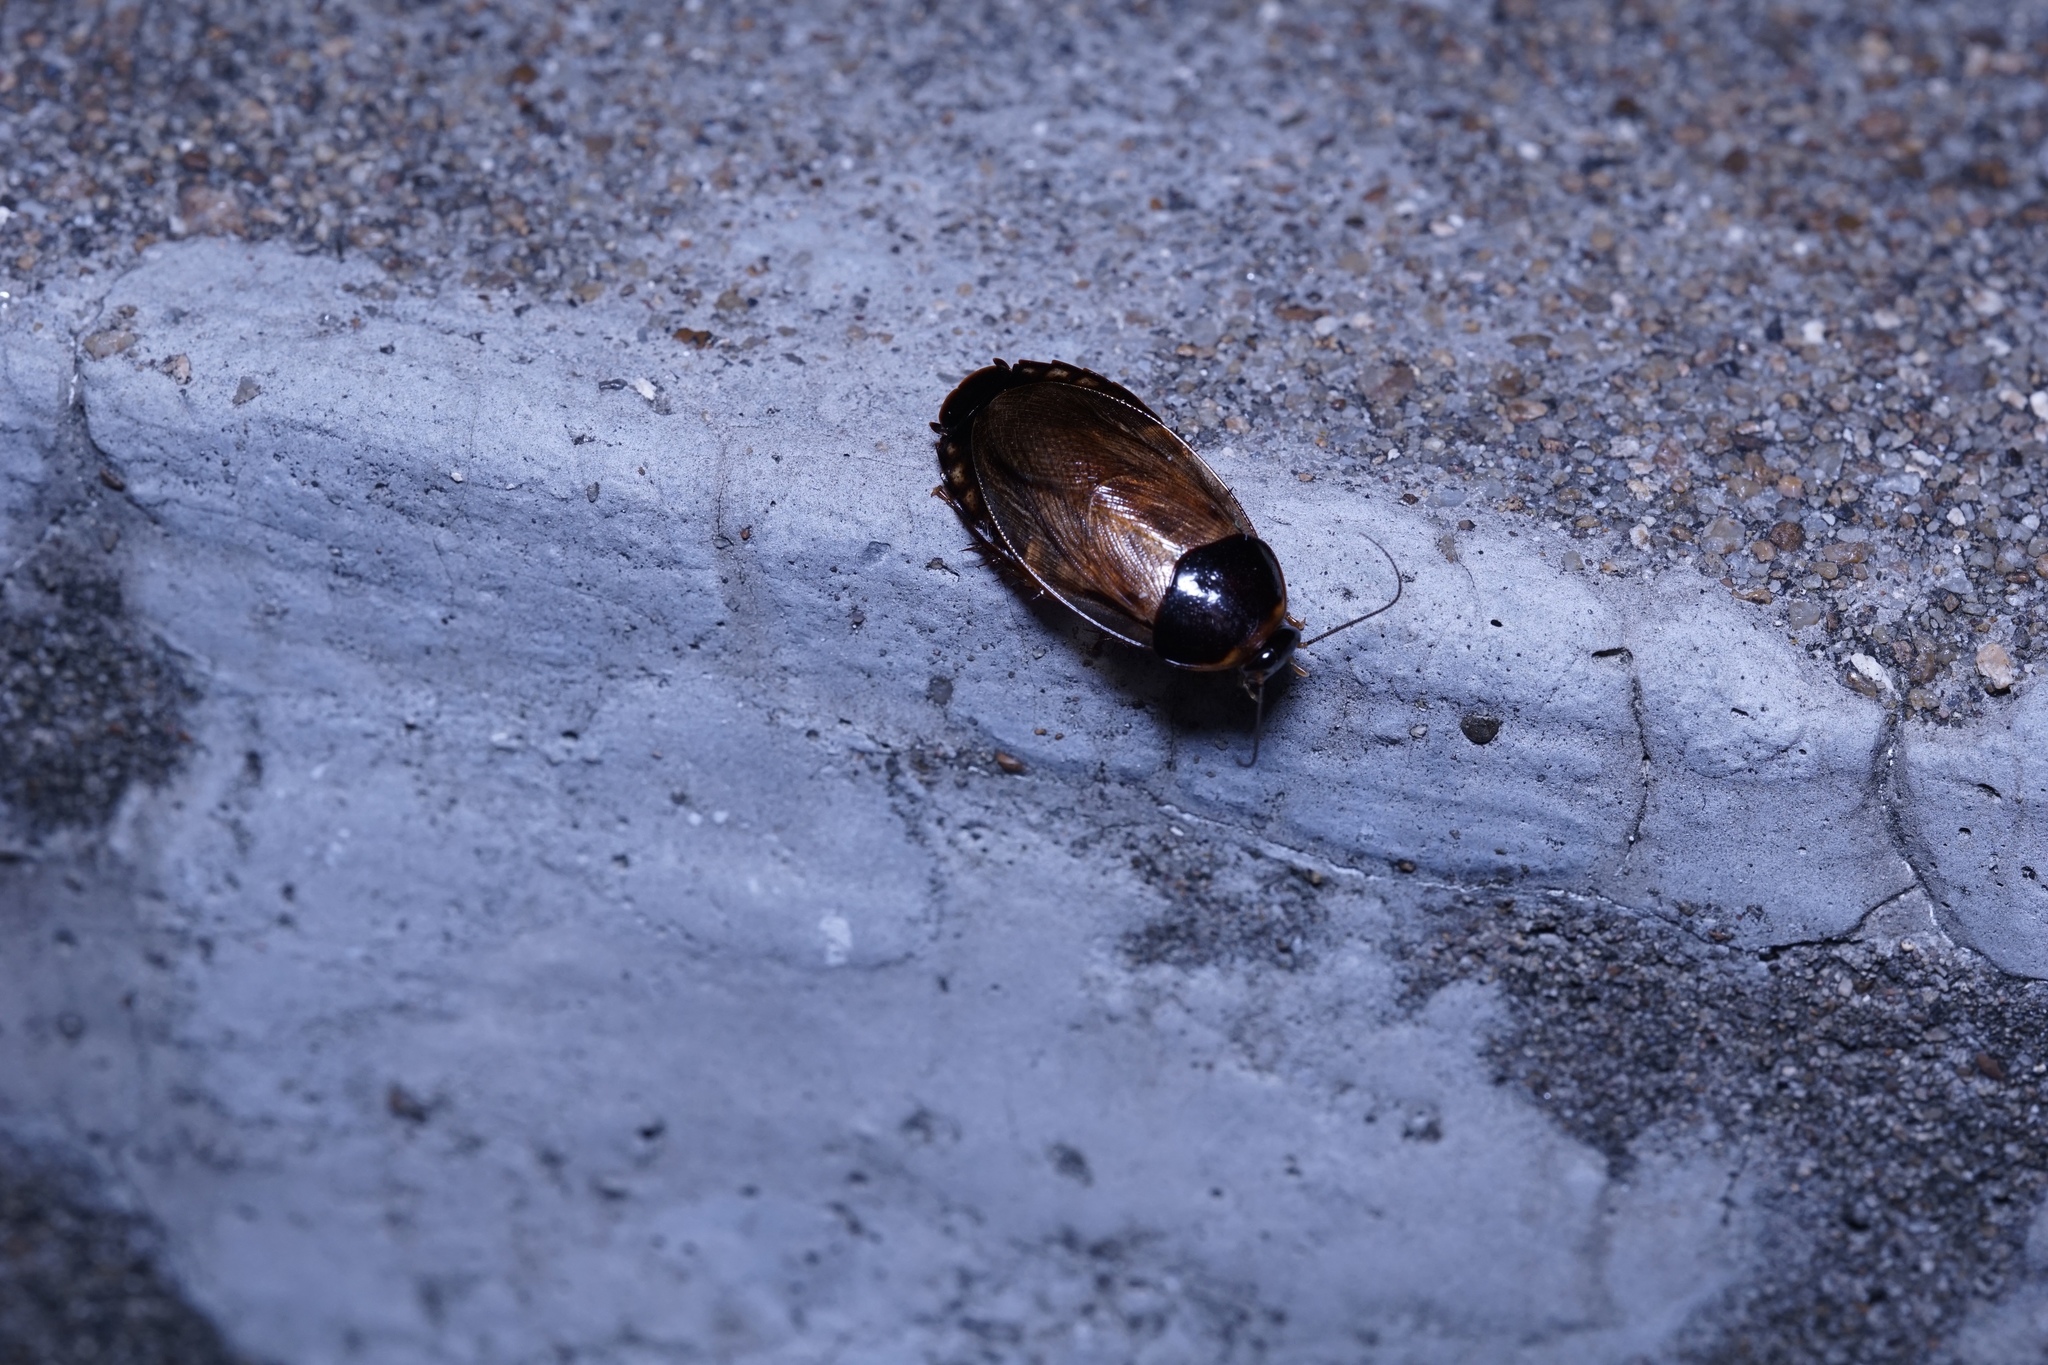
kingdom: Animalia
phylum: Arthropoda
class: Insecta
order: Blattodea
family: Blaberidae
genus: Pycnoscelus
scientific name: Pycnoscelus surinamensis
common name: Surinam cockroach
